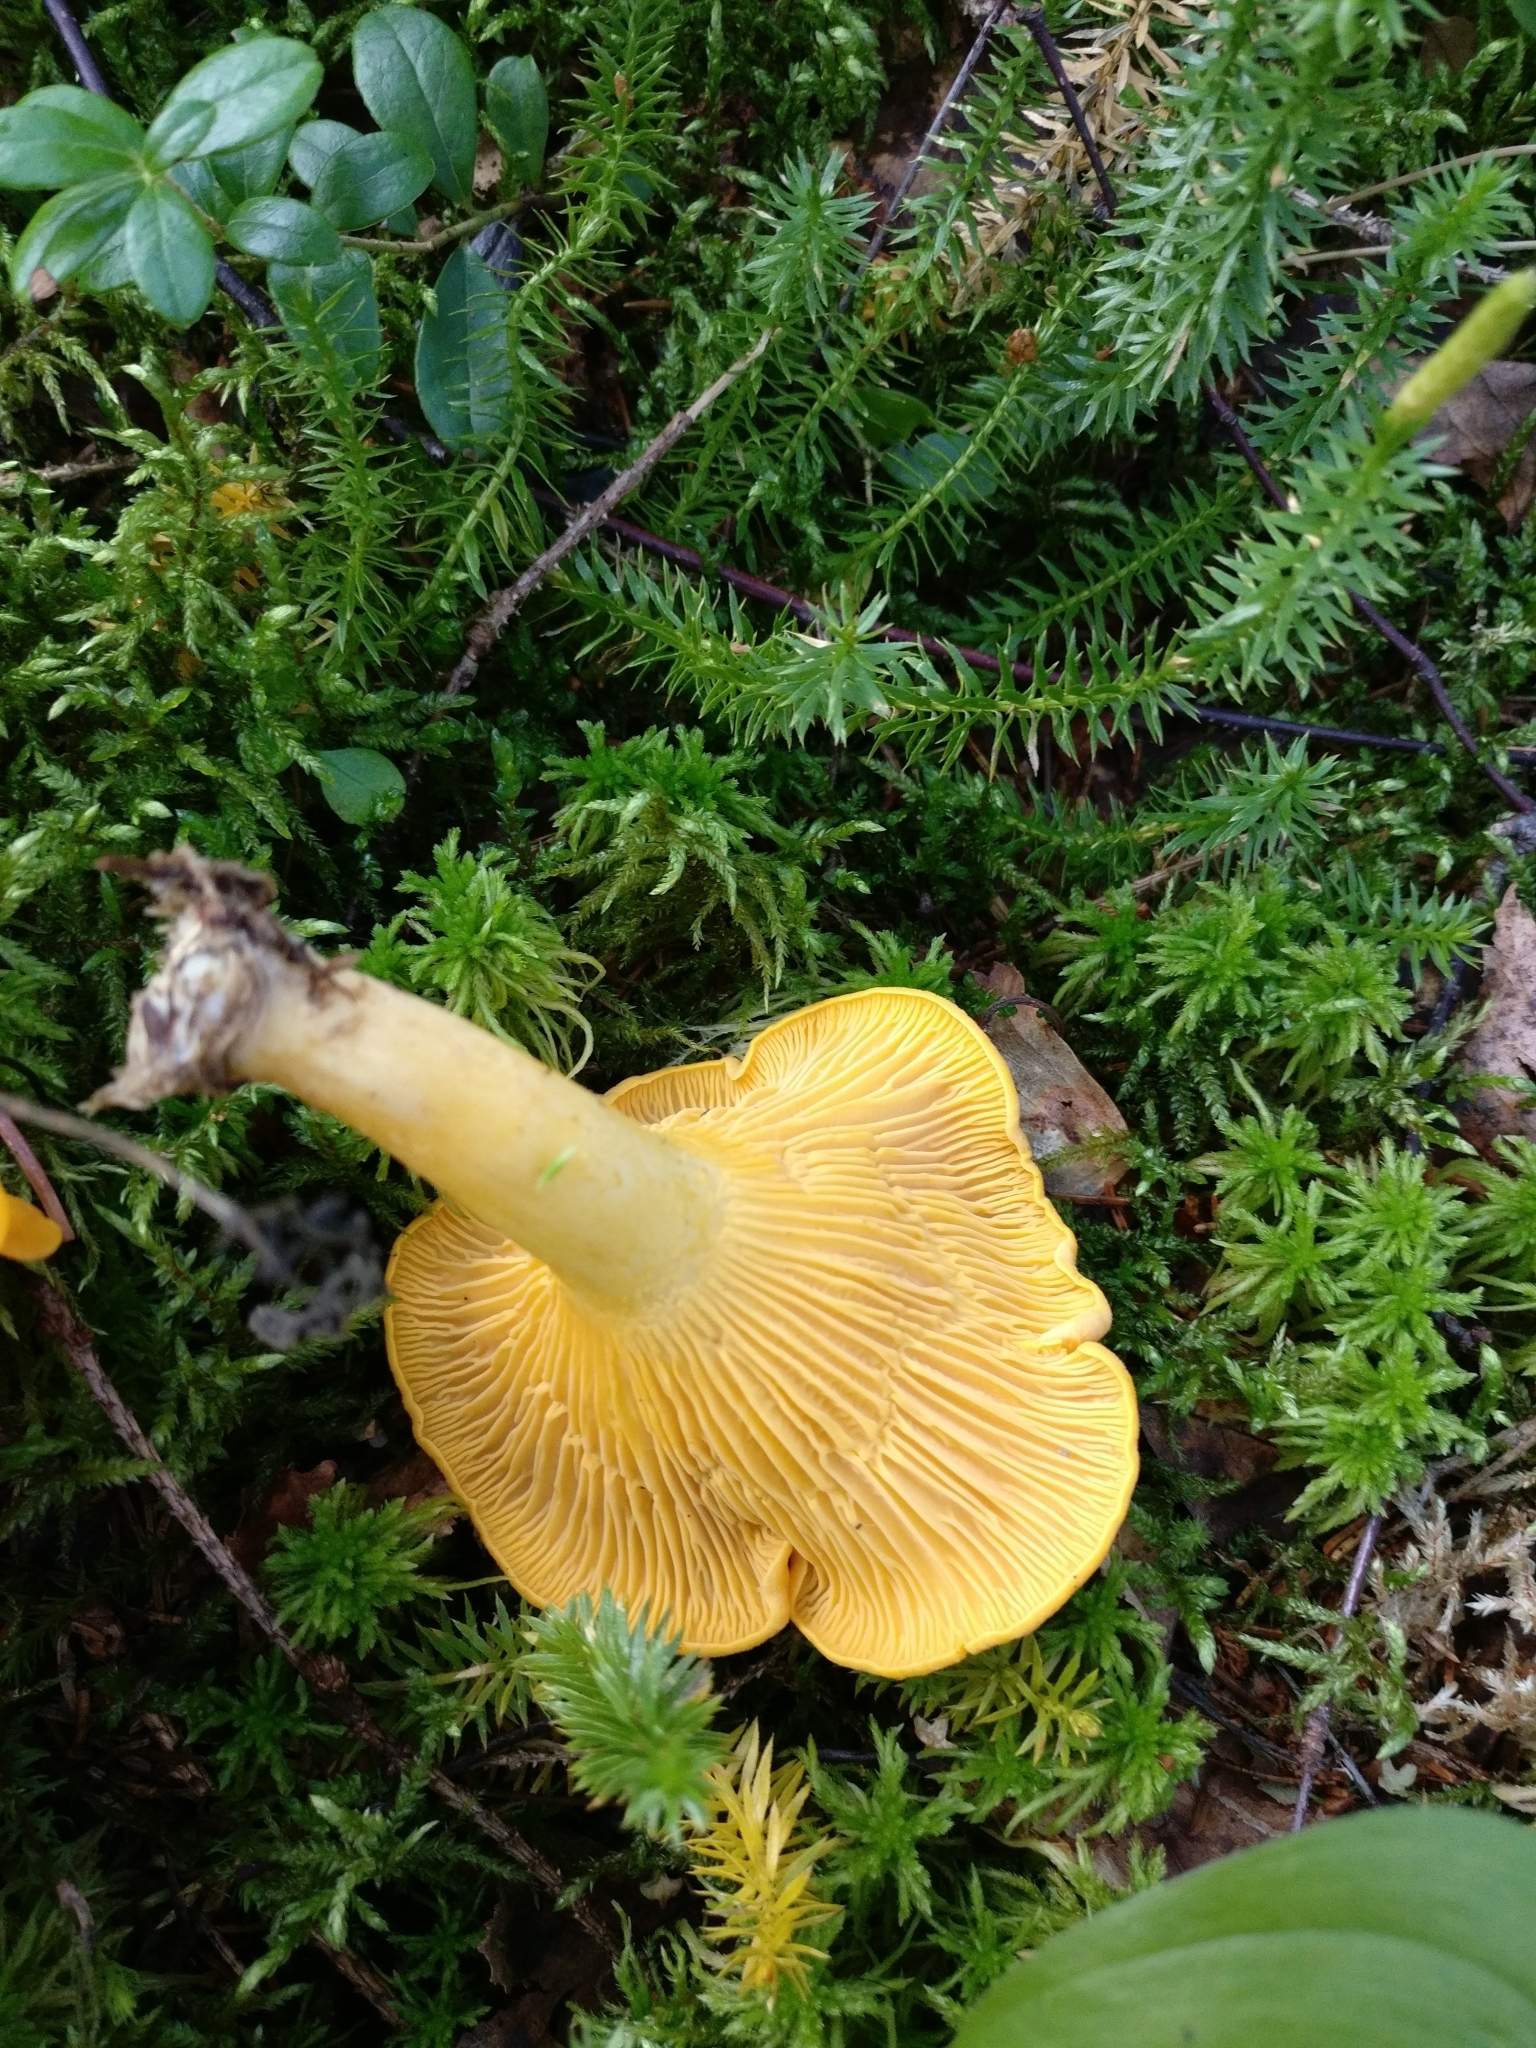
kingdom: Fungi
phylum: Basidiomycota
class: Agaricomycetes
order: Cantharellales
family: Hydnaceae
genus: Cantharellus
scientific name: Cantharellus cibarius
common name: Chanterelle
